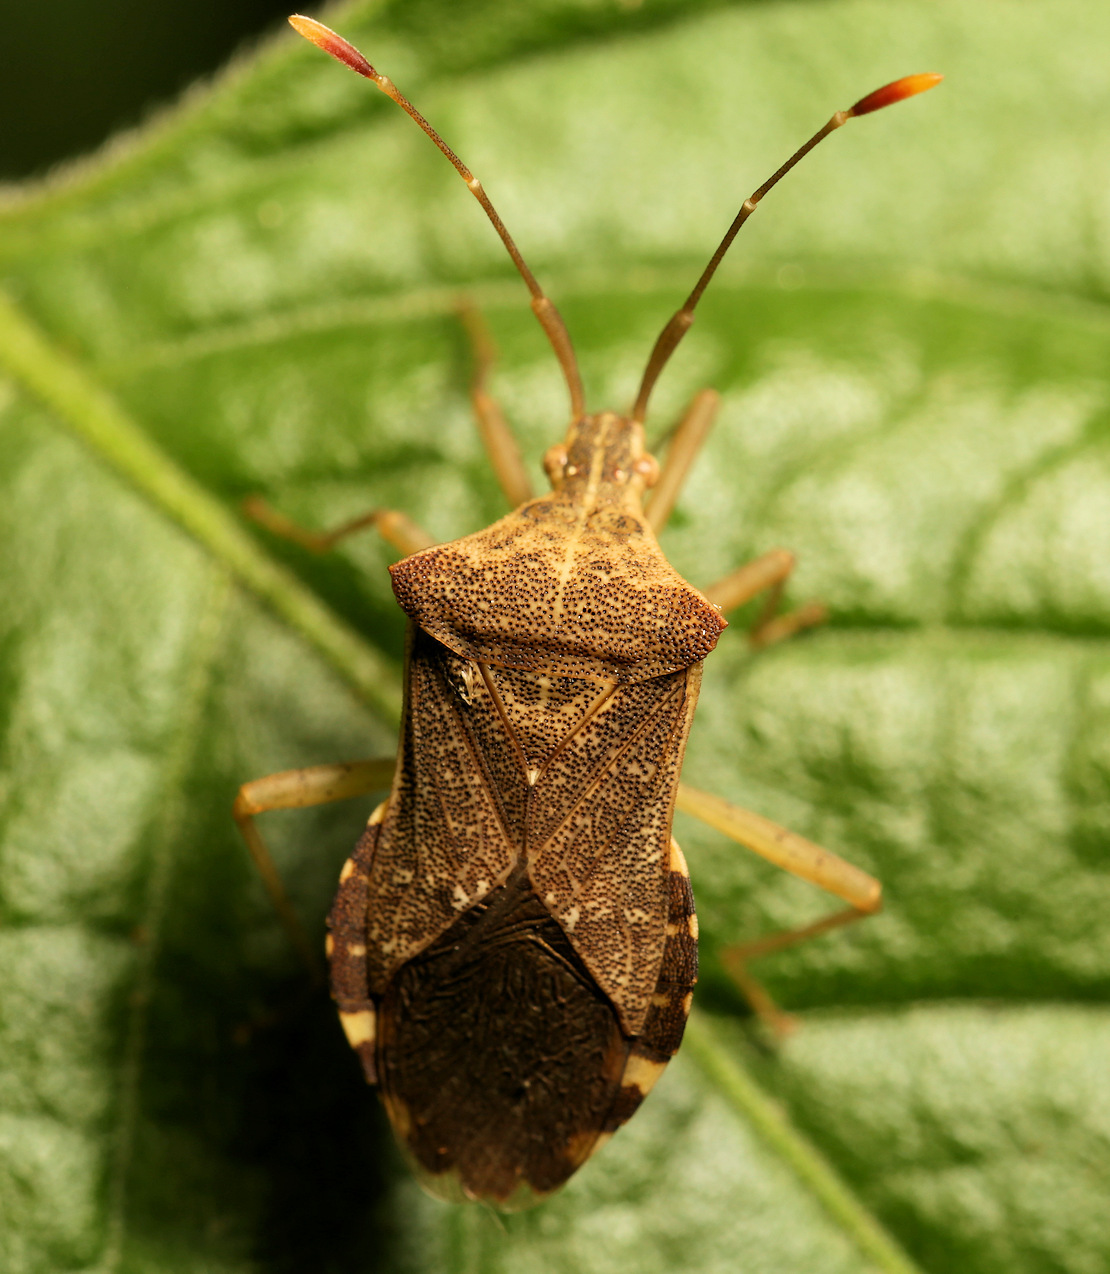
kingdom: Animalia
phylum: Arthropoda
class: Insecta
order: Hemiptera
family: Coreidae
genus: Cletomorpha
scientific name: Cletomorpha nyasana
